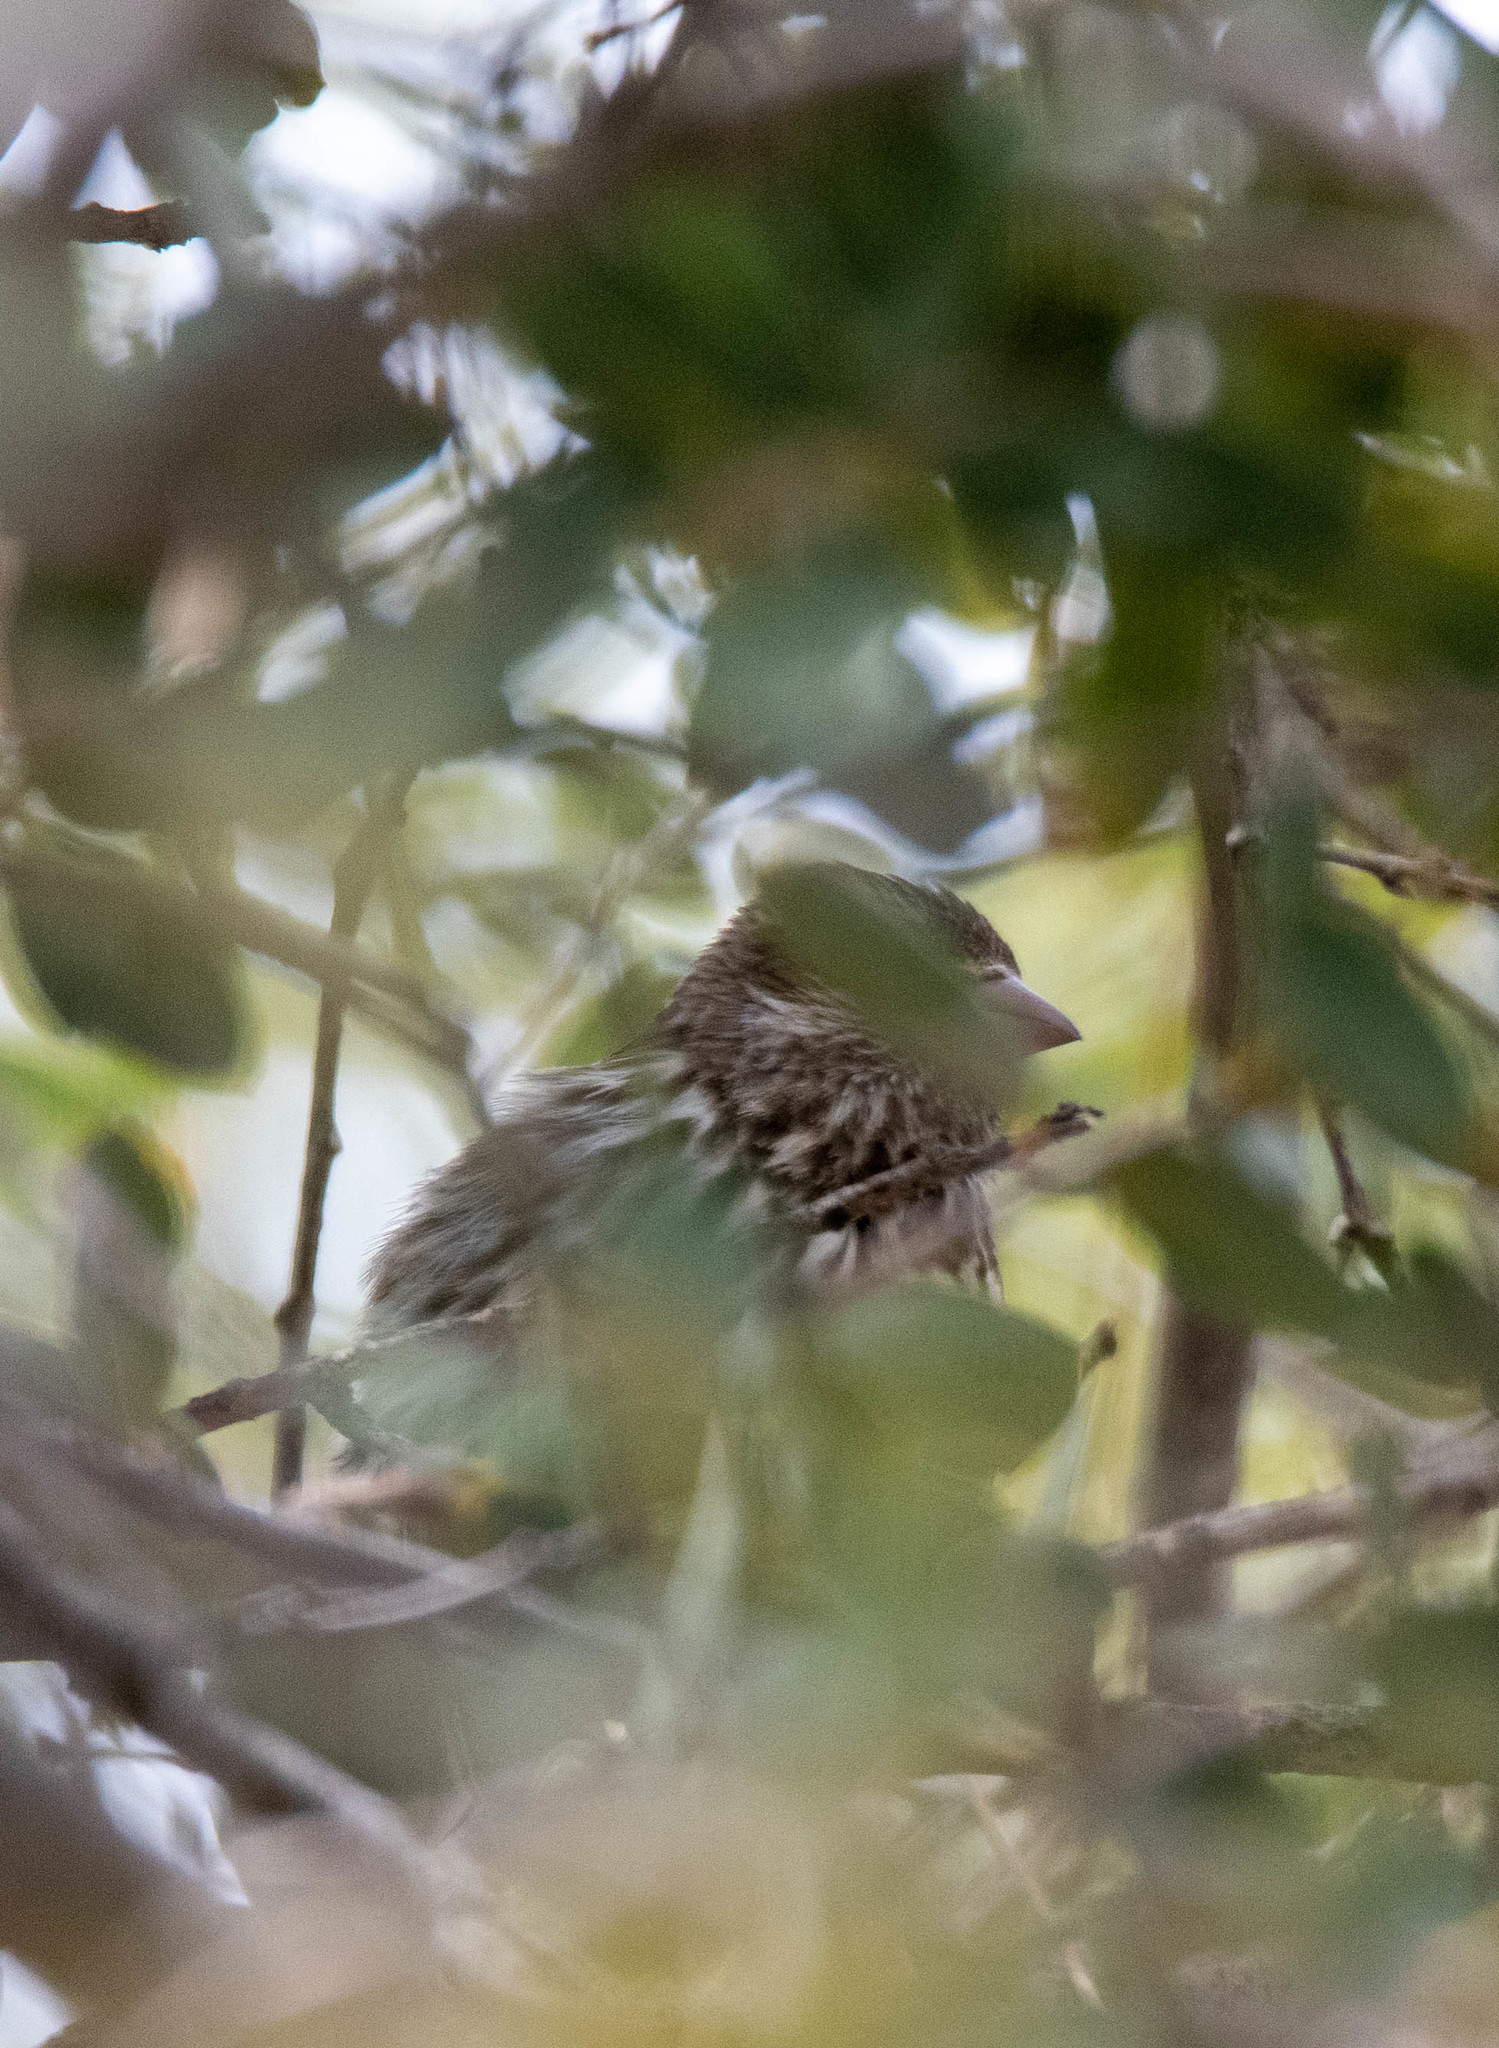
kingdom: Animalia
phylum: Chordata
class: Aves
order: Passeriformes
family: Fringillidae
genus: Haemorhous
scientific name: Haemorhous cassinii
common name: Cassin's finch
